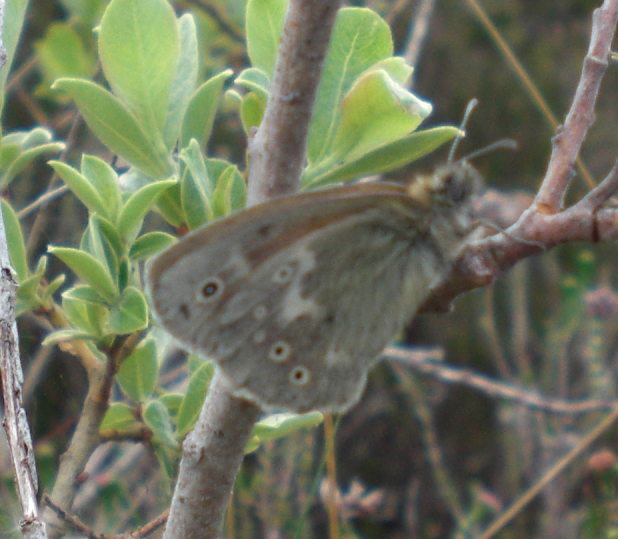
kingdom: Animalia
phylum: Arthropoda
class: Insecta
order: Lepidoptera
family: Nymphalidae
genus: Coenonympha
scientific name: Coenonympha tullia
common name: Large heath
